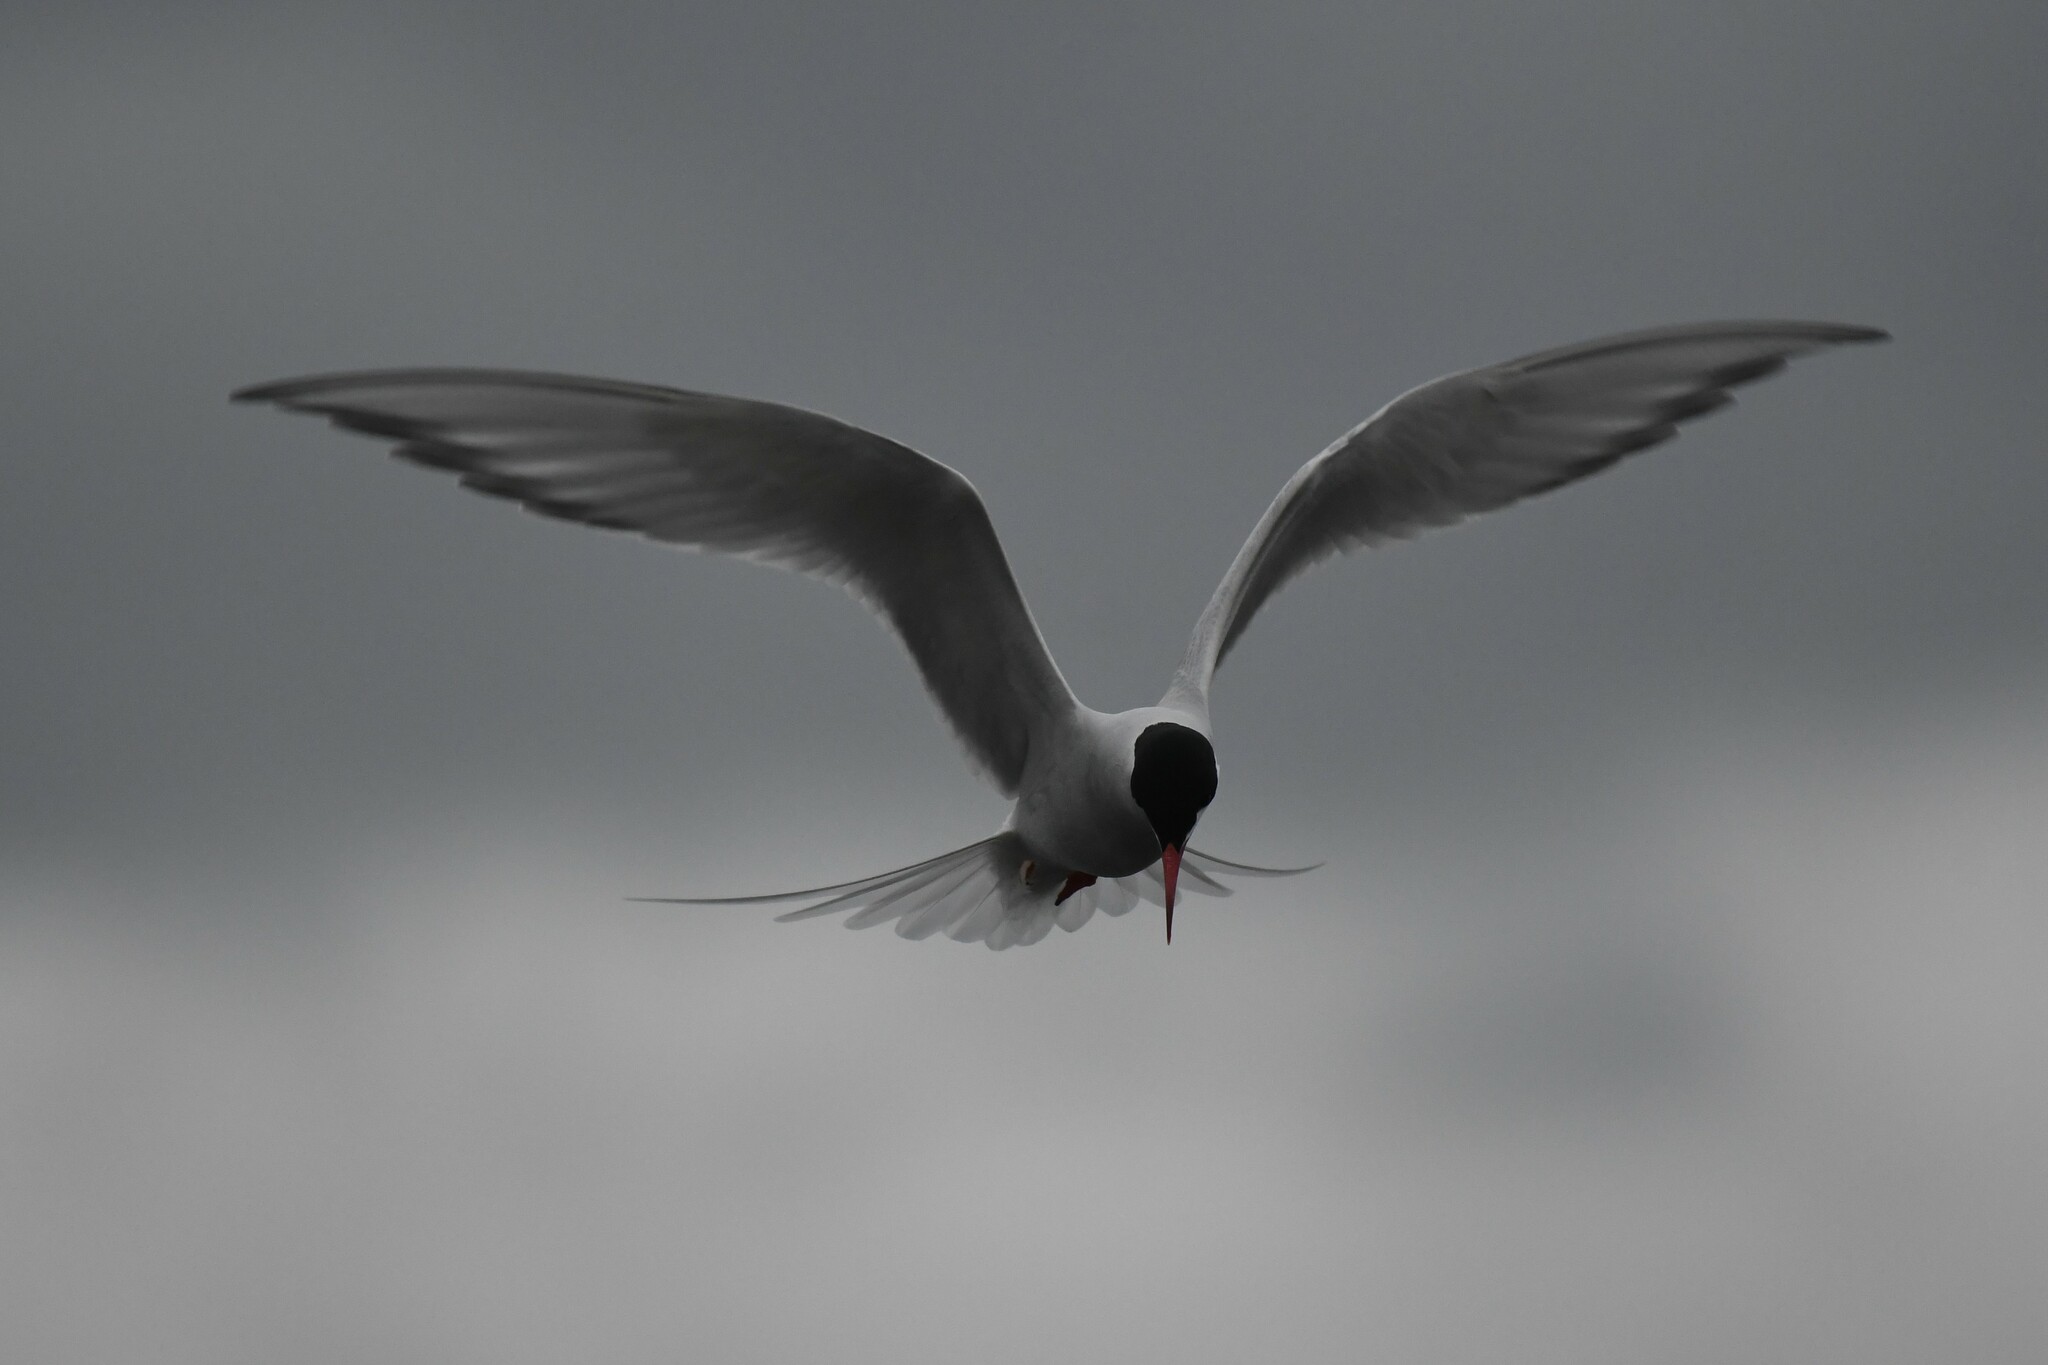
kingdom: Animalia
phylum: Chordata
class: Aves
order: Charadriiformes
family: Laridae
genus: Sterna
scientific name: Sterna hirundinacea
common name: South american tern
